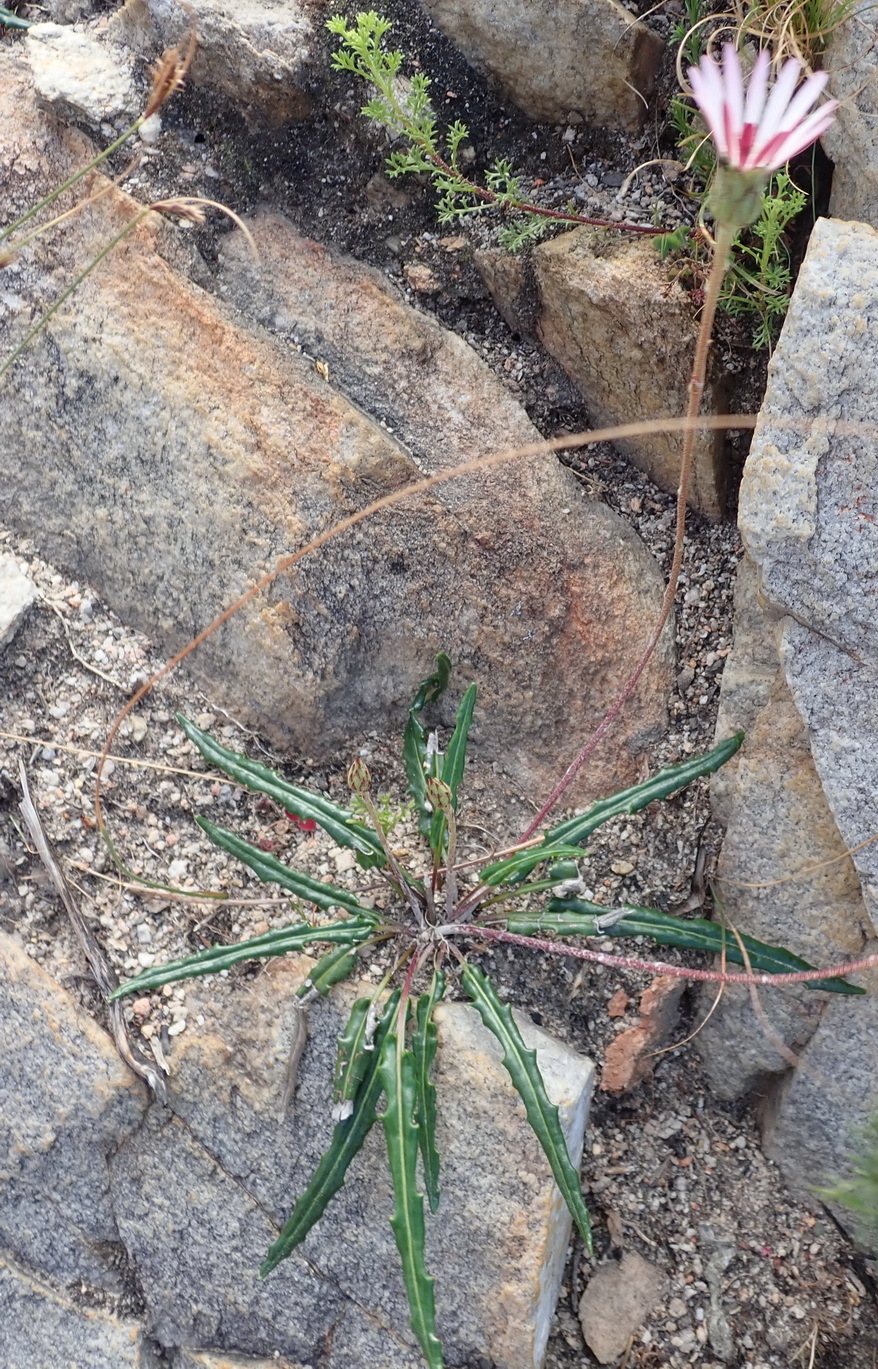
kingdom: Plantae
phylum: Tracheophyta
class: Magnoliopsida
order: Asterales
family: Asteraceae
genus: Gerbera
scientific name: Gerbera serrata
